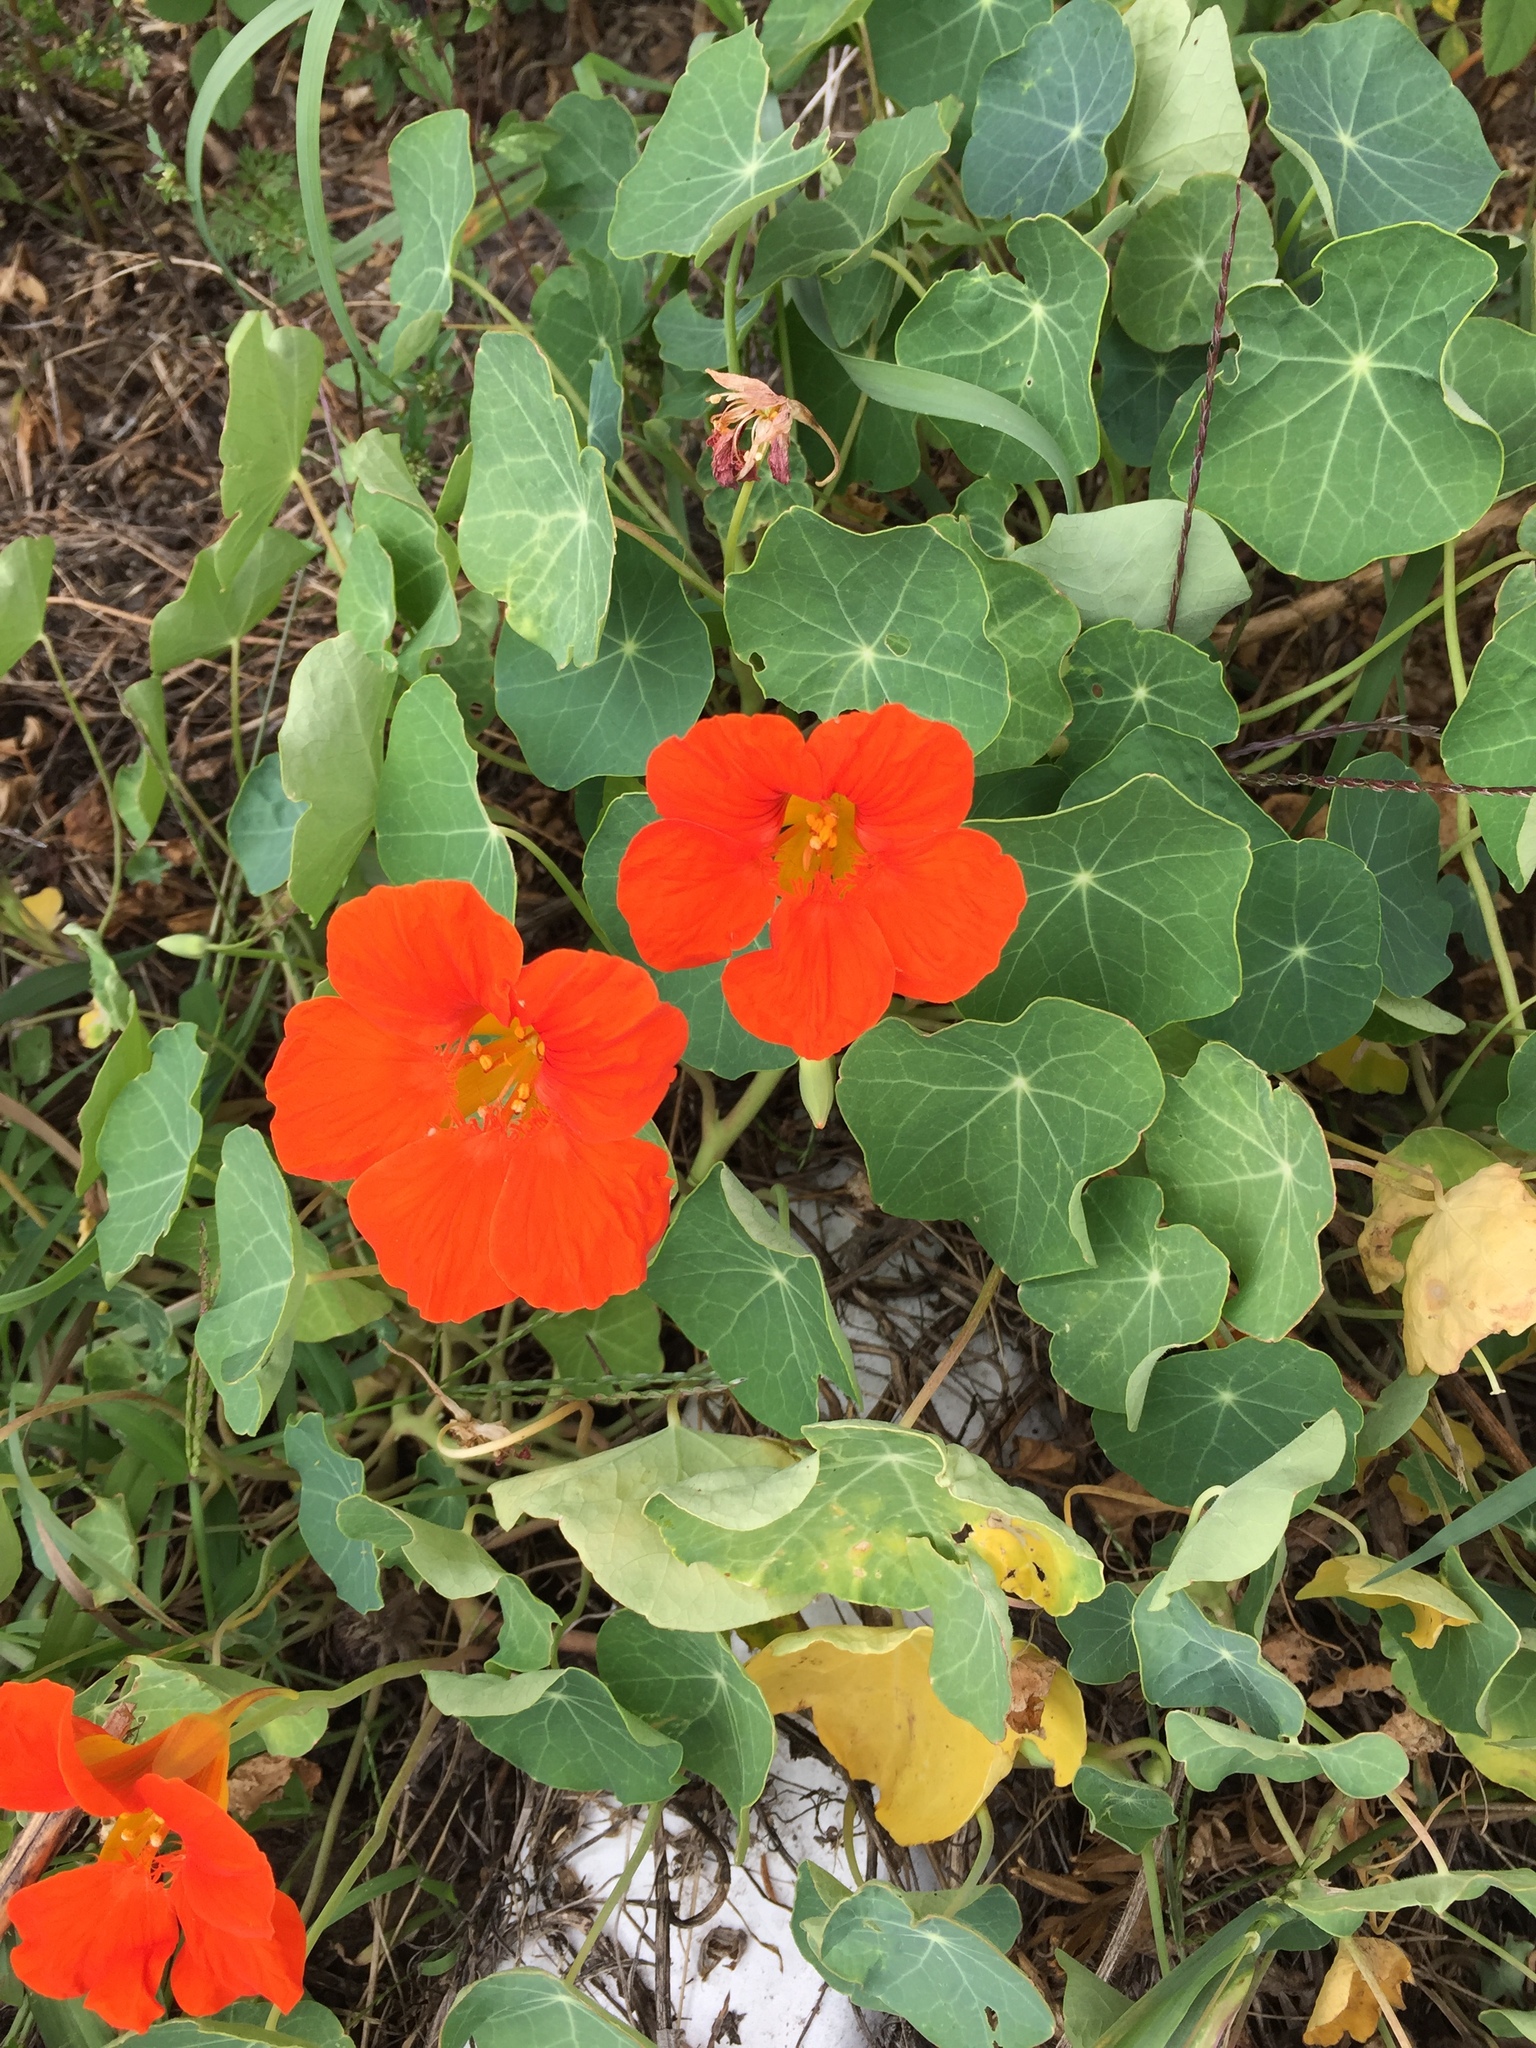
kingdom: Plantae
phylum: Tracheophyta
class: Magnoliopsida
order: Brassicales
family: Tropaeolaceae
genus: Tropaeolum
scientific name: Tropaeolum majus
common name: Nasturtium
